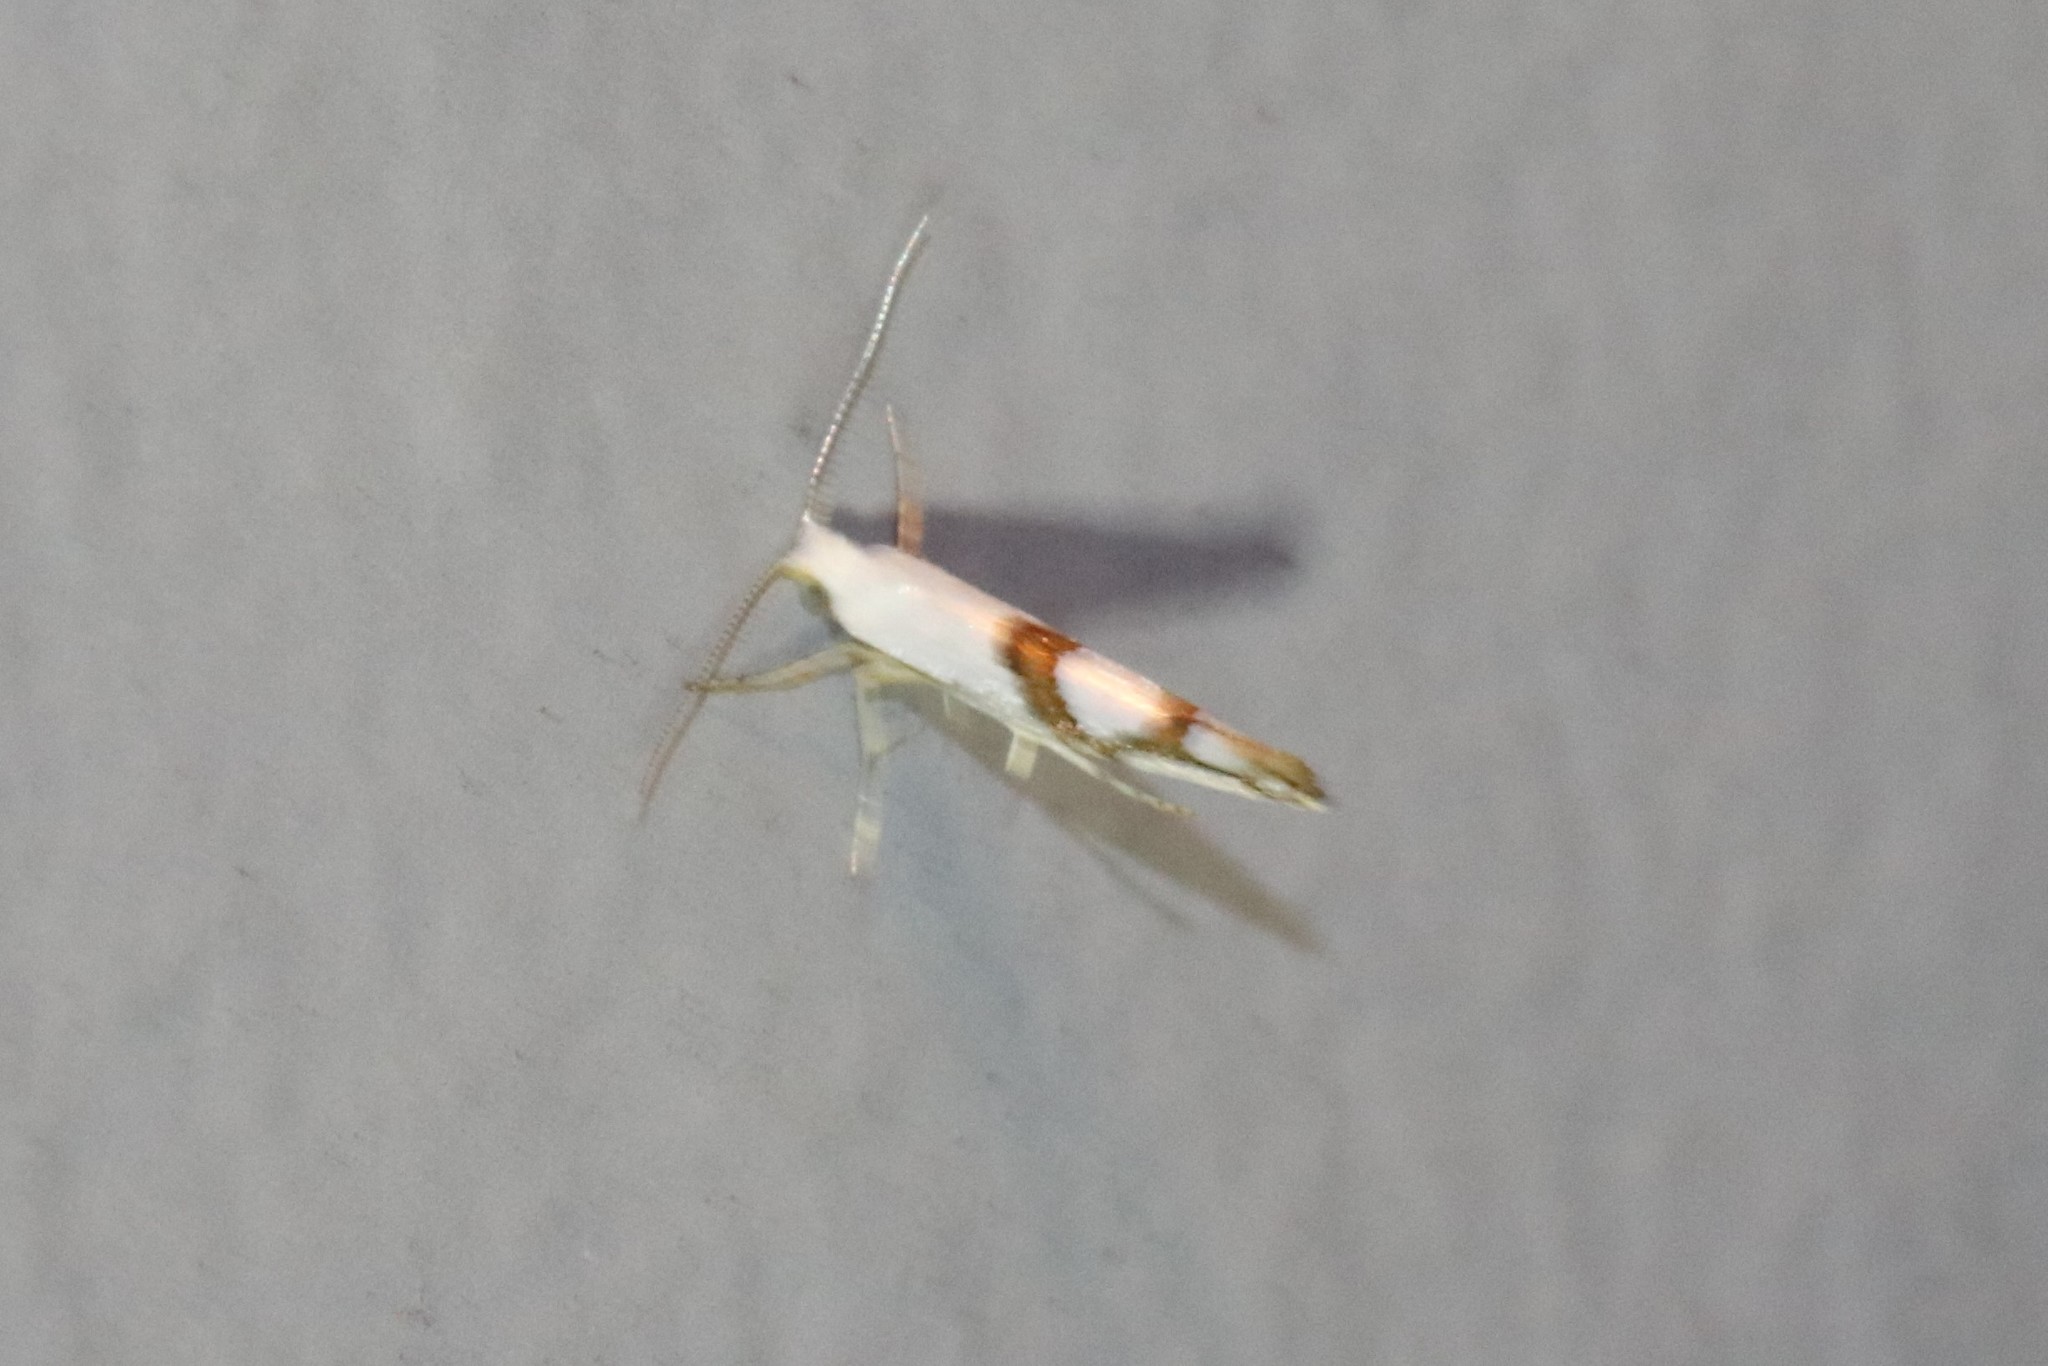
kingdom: Animalia
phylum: Arthropoda
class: Insecta
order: Lepidoptera
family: Argyresthiidae
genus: Argyresthia
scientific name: Argyresthia oreasella
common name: Cherry shoot borer moth
